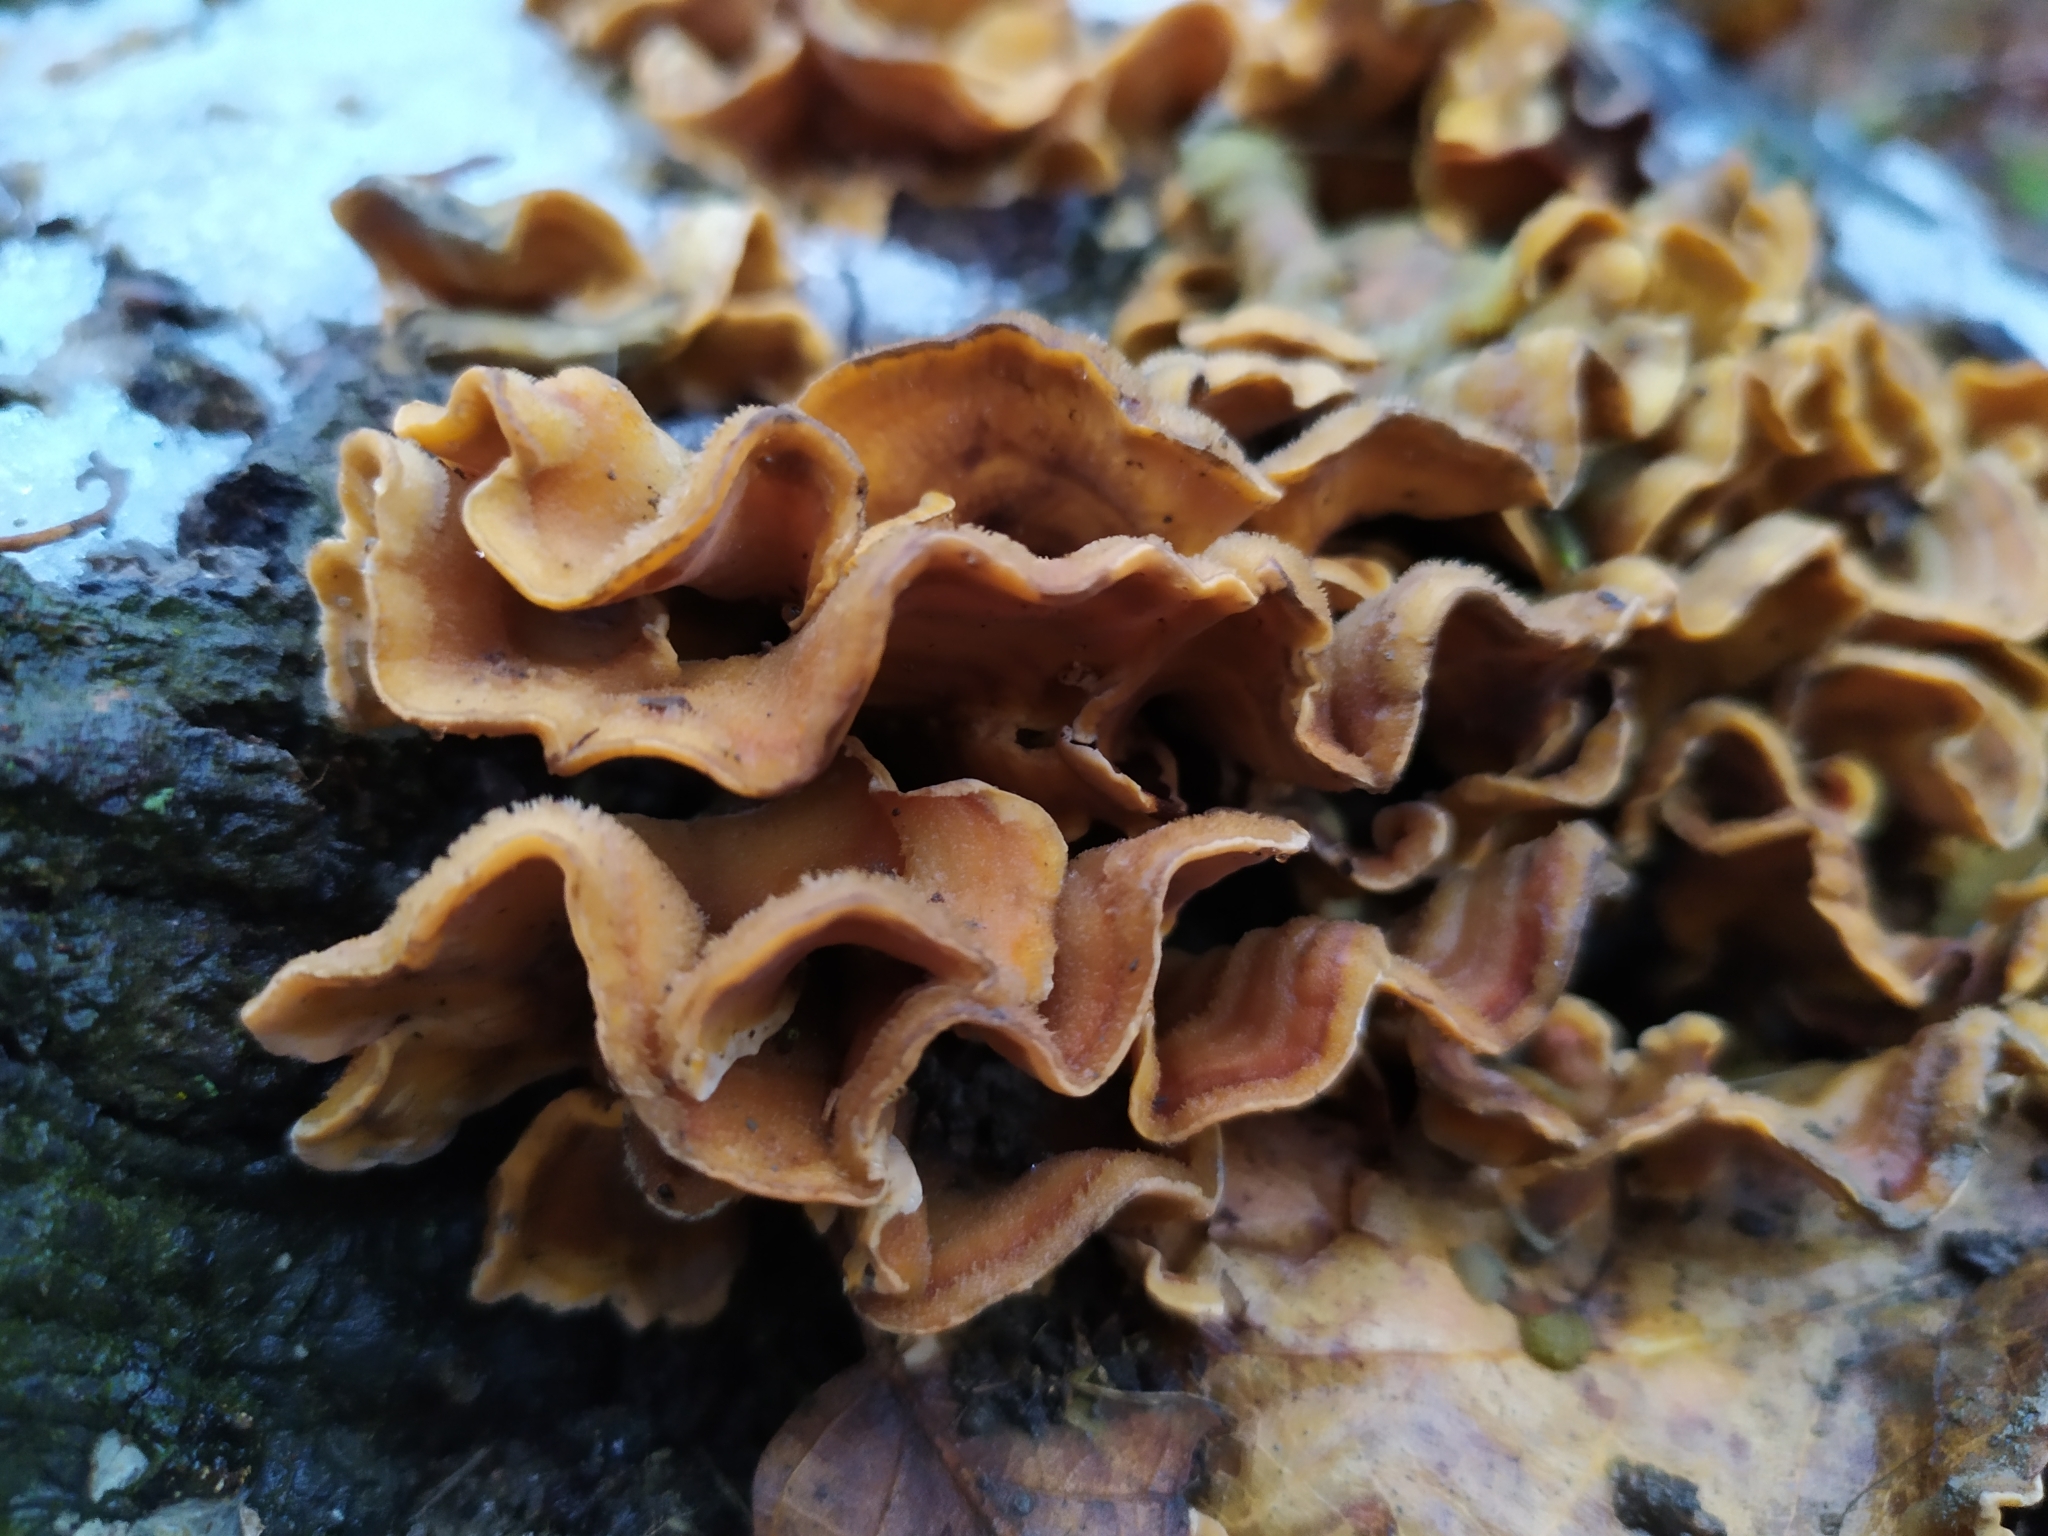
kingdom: Fungi
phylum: Basidiomycota
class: Agaricomycetes
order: Russulales
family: Stereaceae
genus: Stereum
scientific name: Stereum hirsutum
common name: Hairy curtain crust
